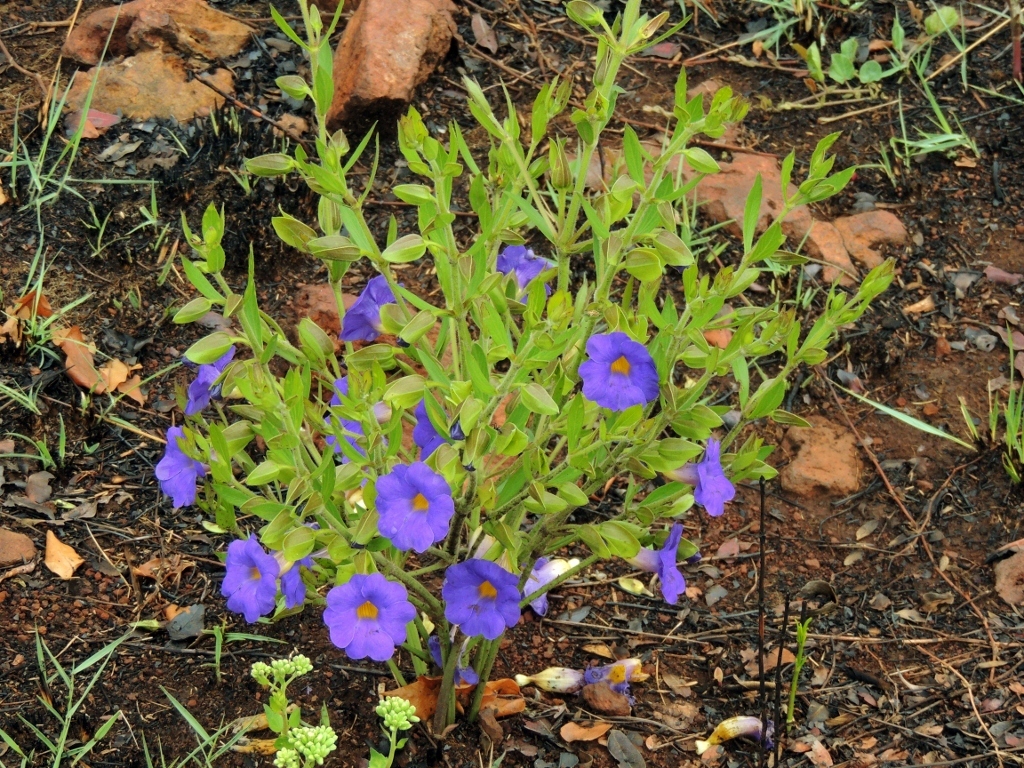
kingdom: Plantae
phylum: Tracheophyta
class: Magnoliopsida
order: Lamiales
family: Acanthaceae
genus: Thunbergia
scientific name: Thunbergia oblongifolia
